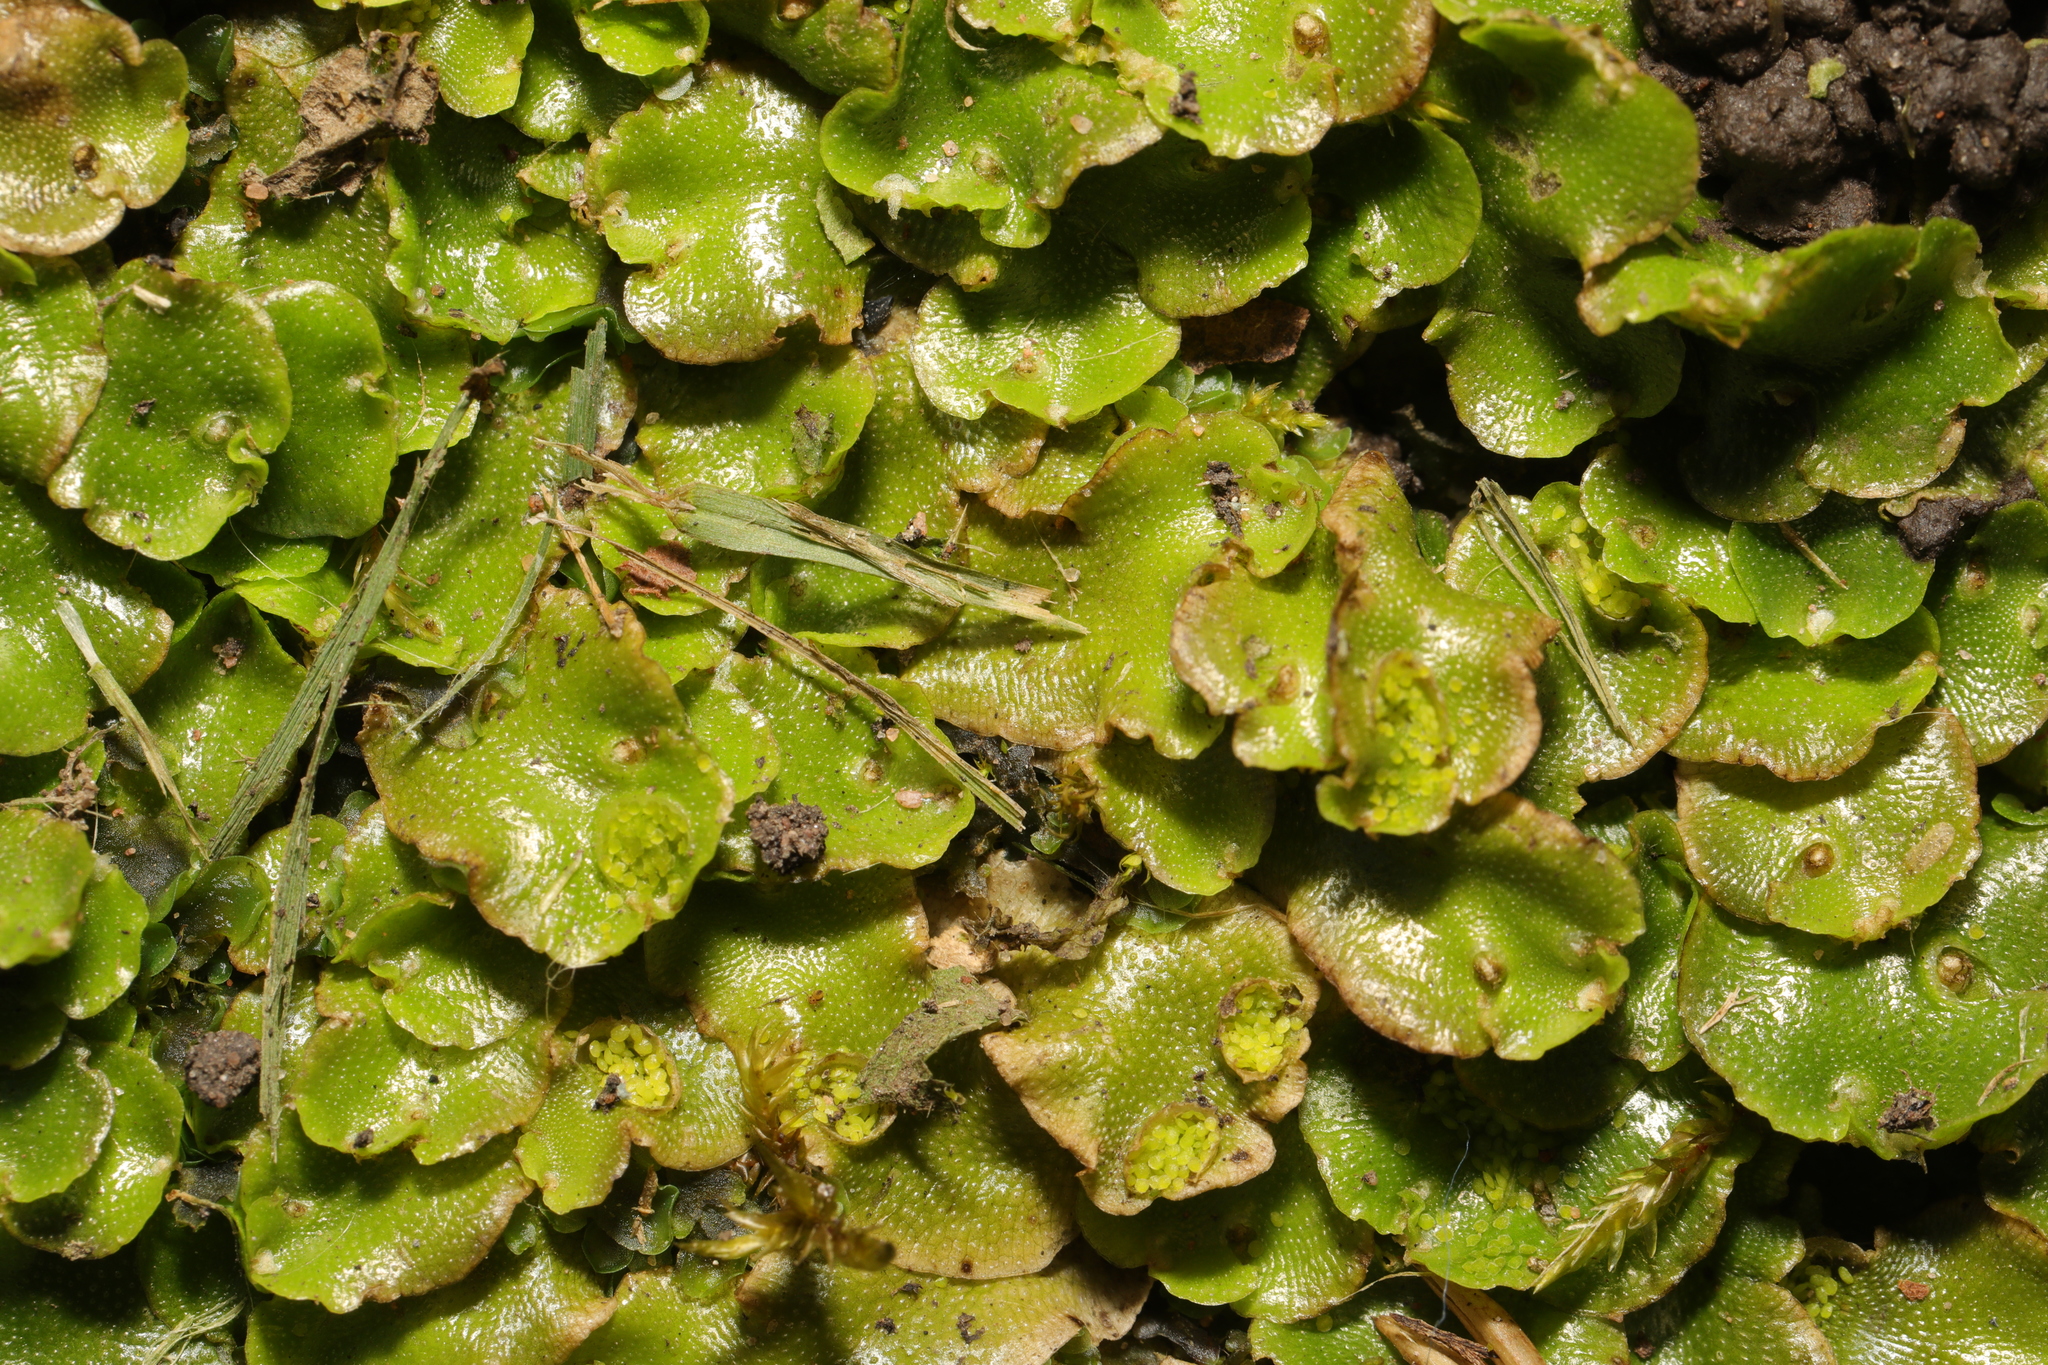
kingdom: Plantae
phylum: Marchantiophyta
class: Marchantiopsida
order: Lunulariales
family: Lunulariaceae
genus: Lunularia
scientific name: Lunularia cruciata
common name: Crescent-cup liverwort
